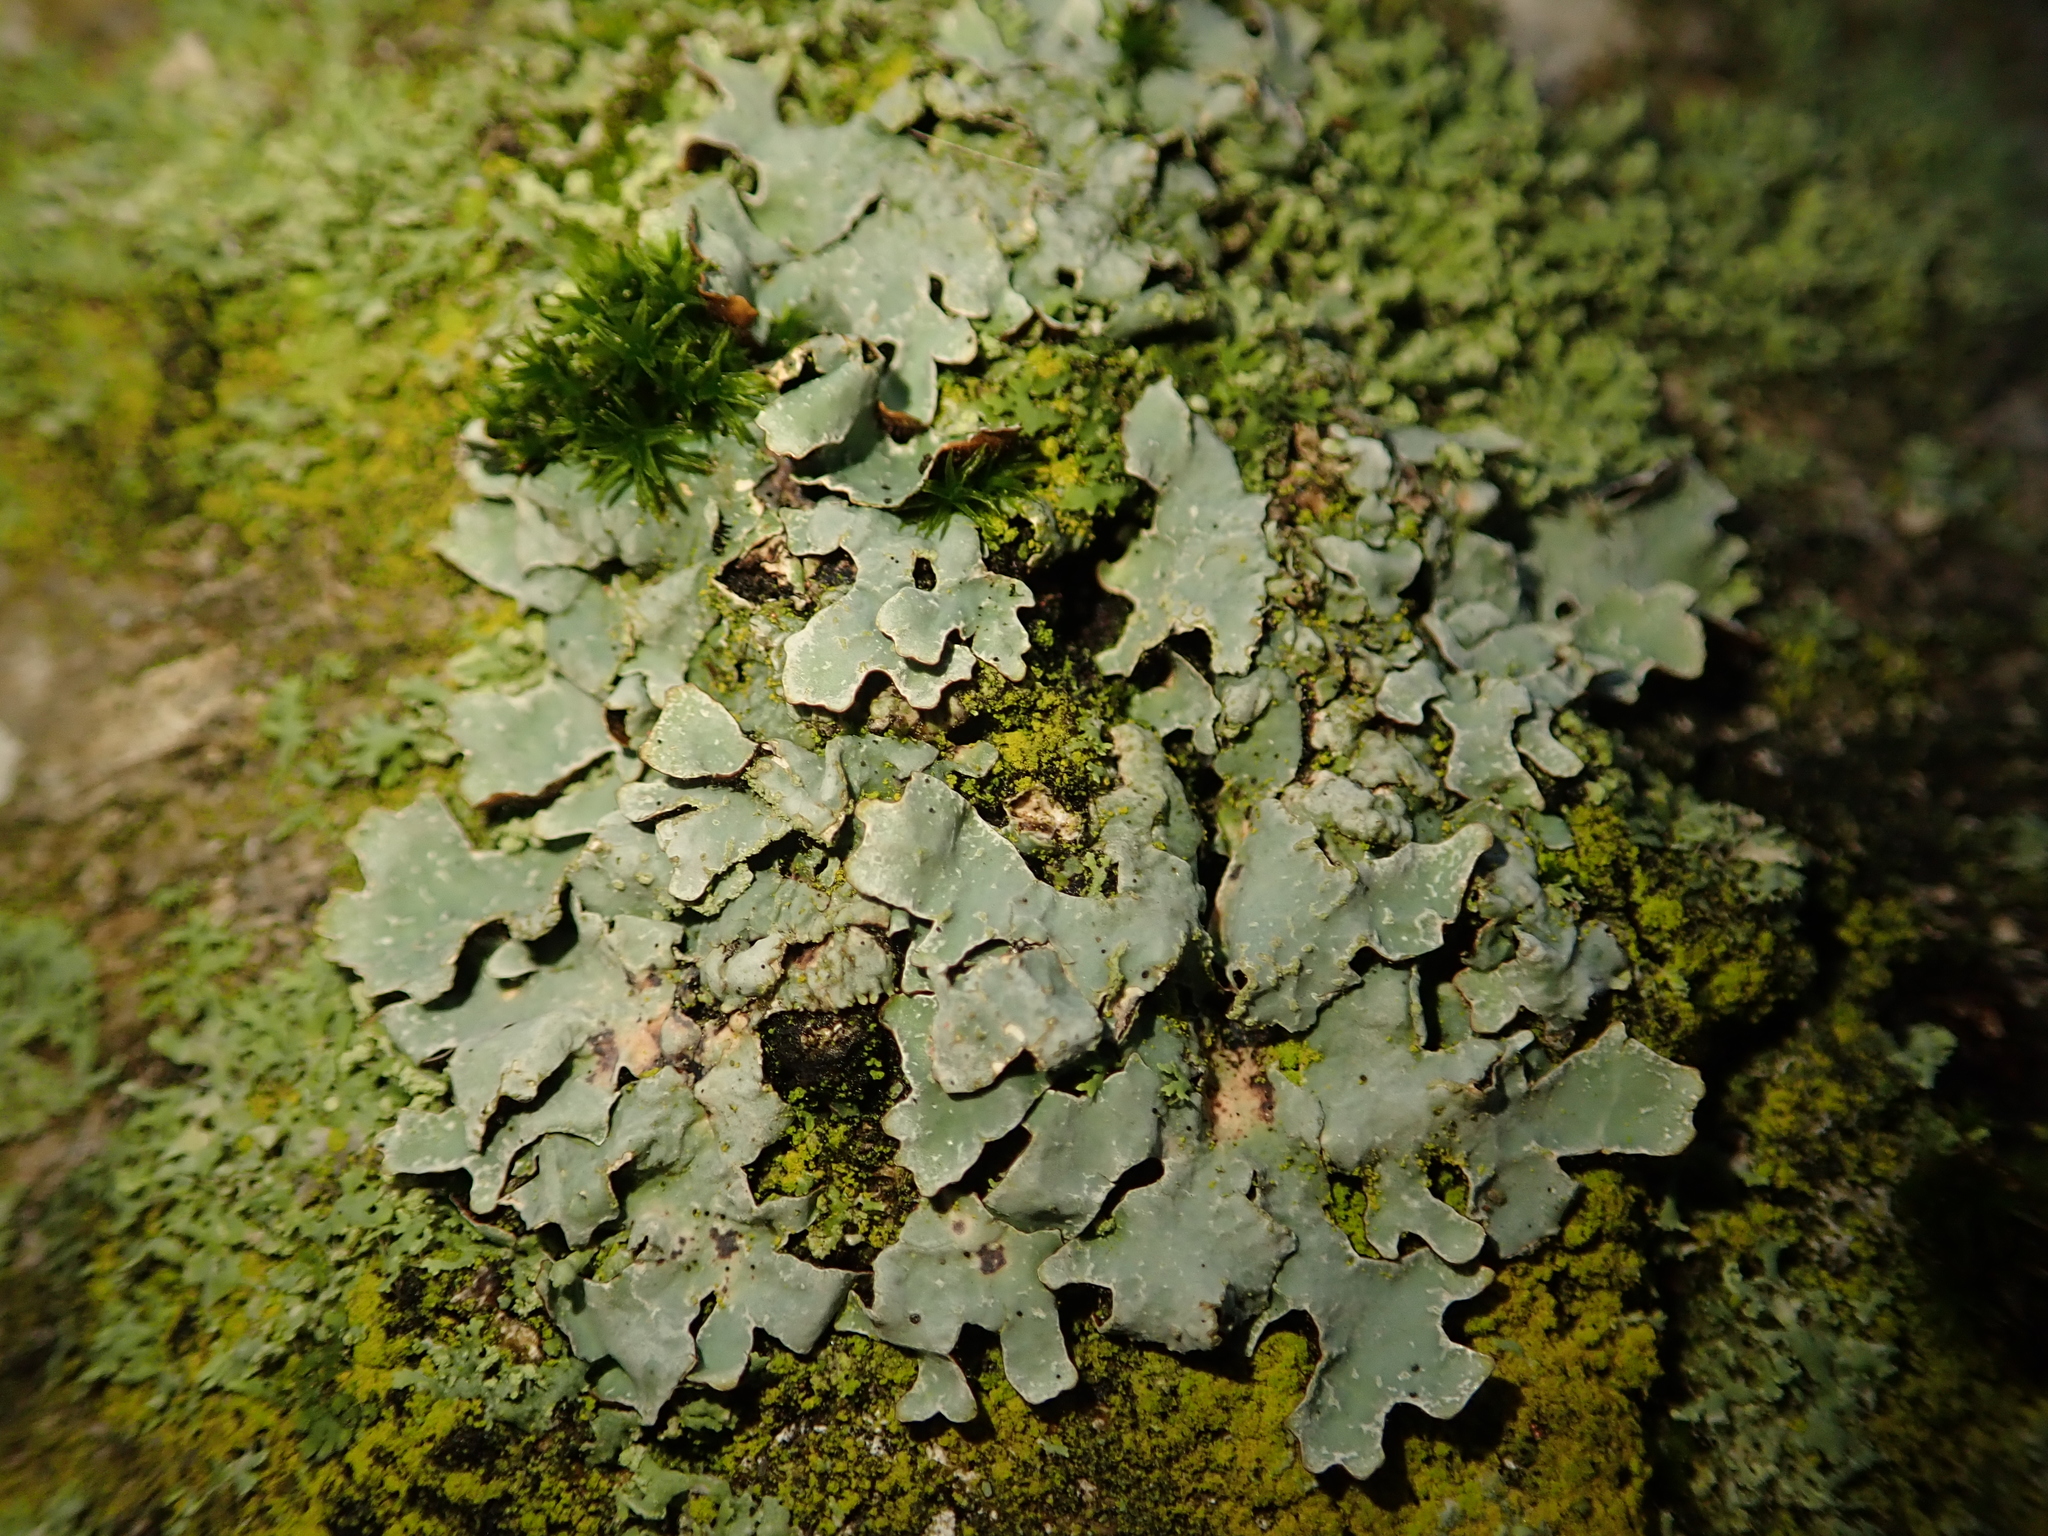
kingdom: Fungi
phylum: Ascomycota
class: Lecanoromycetes
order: Lecanorales
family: Parmeliaceae
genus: Parmelia
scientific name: Parmelia sulcata
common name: Netted shield lichen
